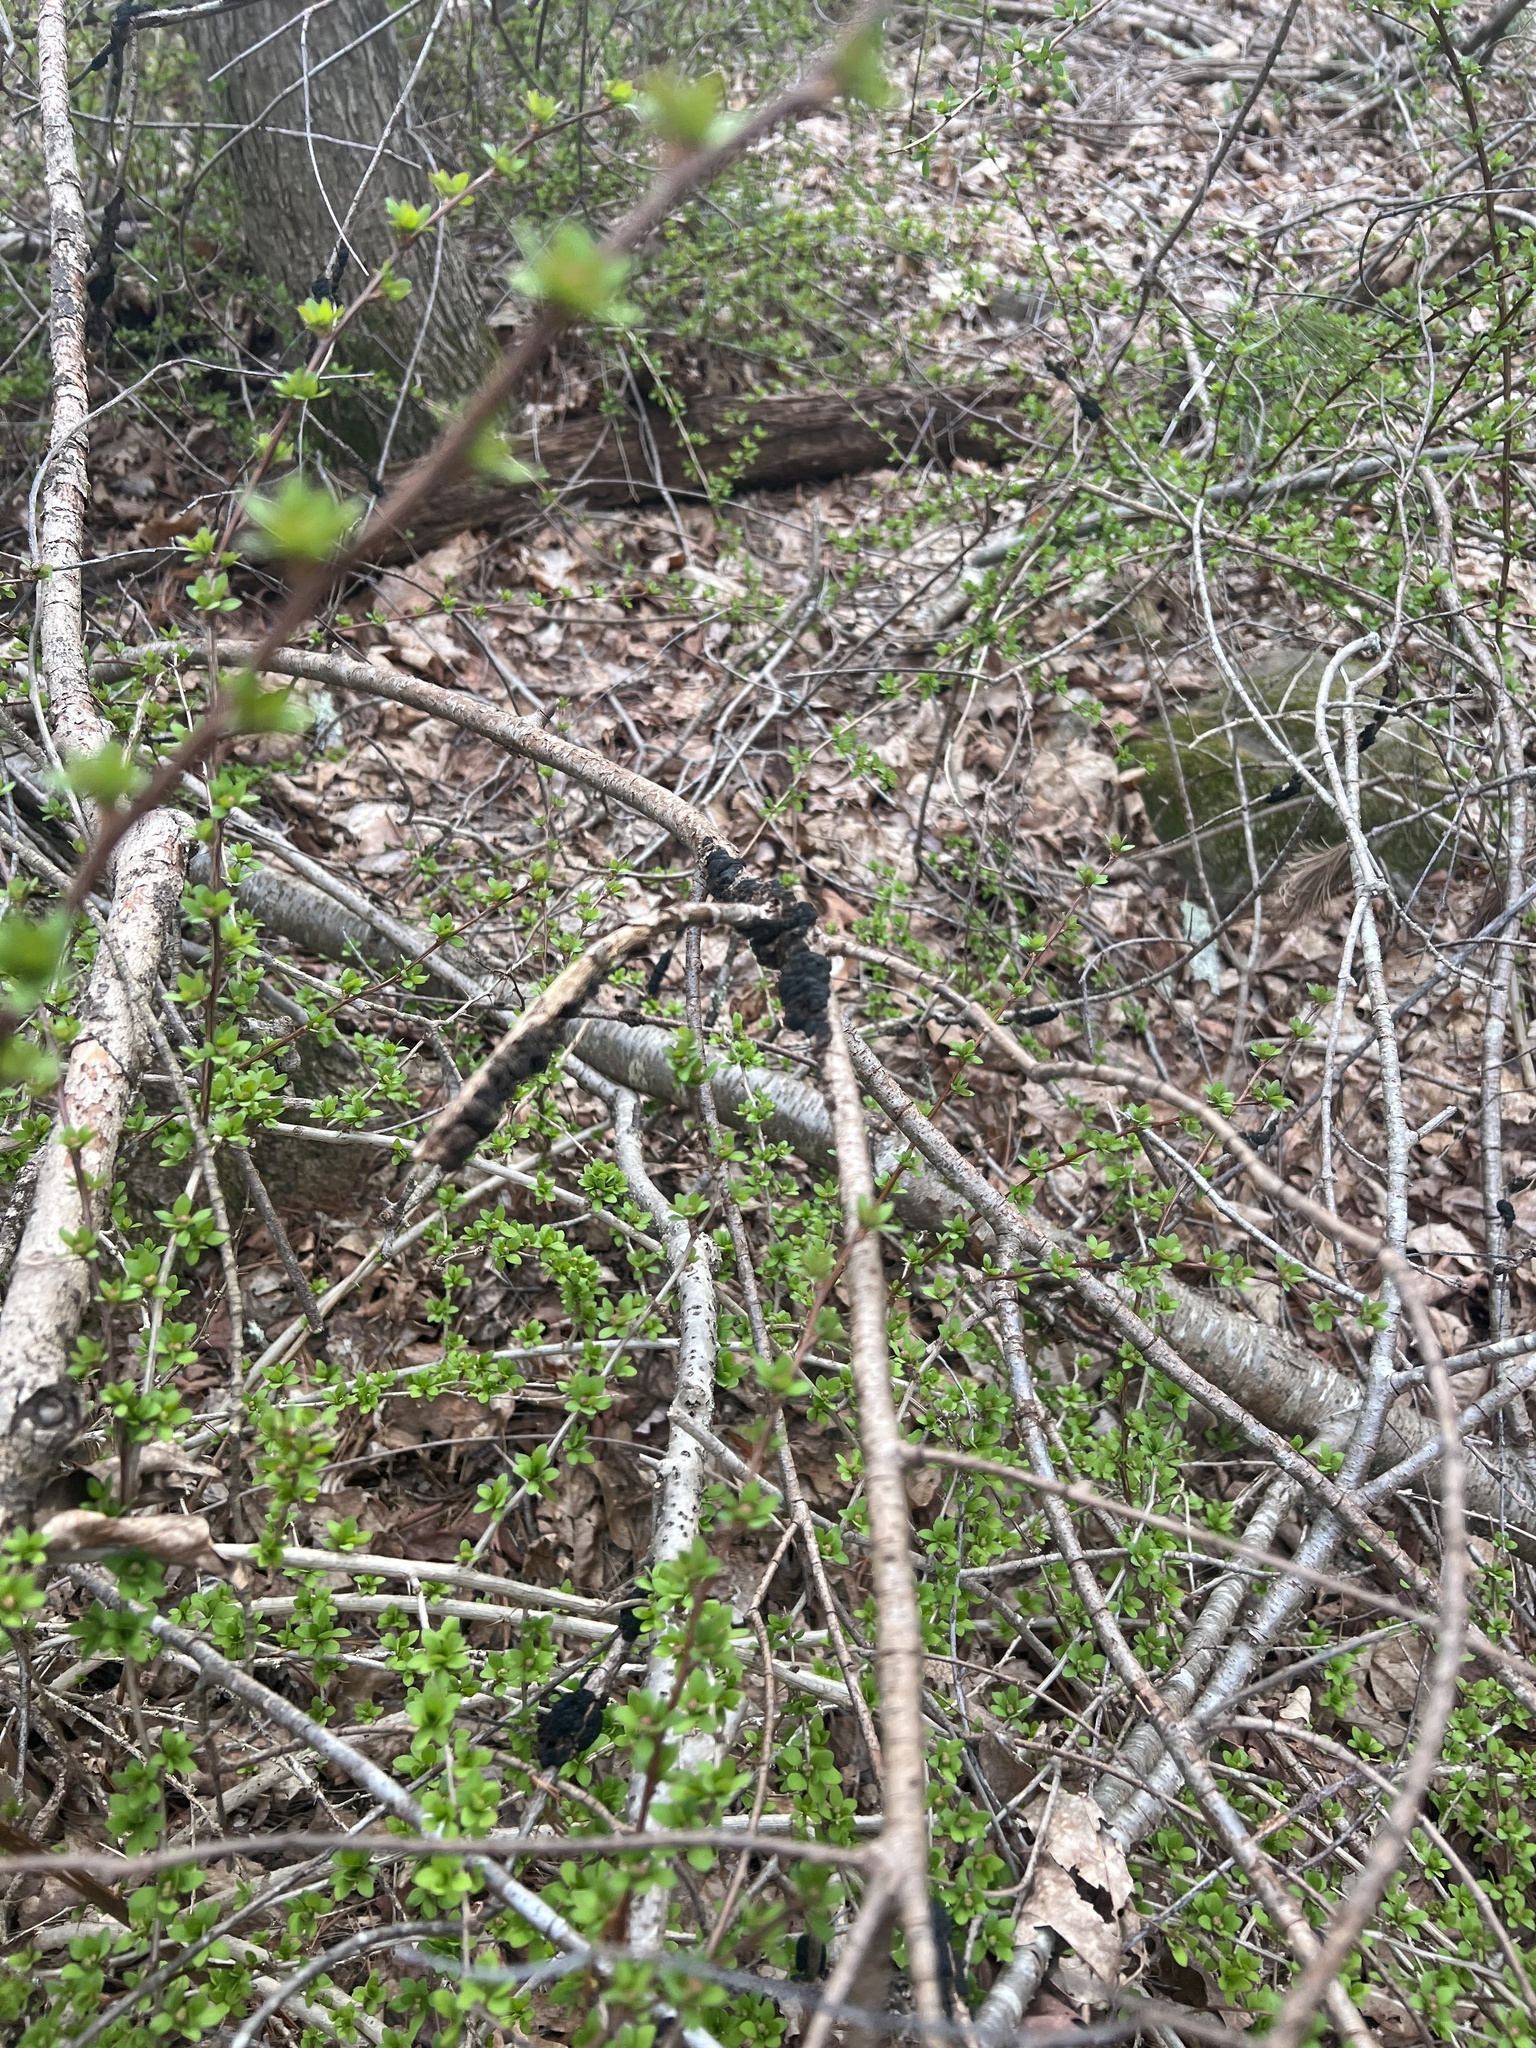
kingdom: Fungi
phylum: Ascomycota
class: Dothideomycetes
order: Venturiales
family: Venturiaceae
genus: Apiosporina
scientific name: Apiosporina morbosa
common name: Black knot
